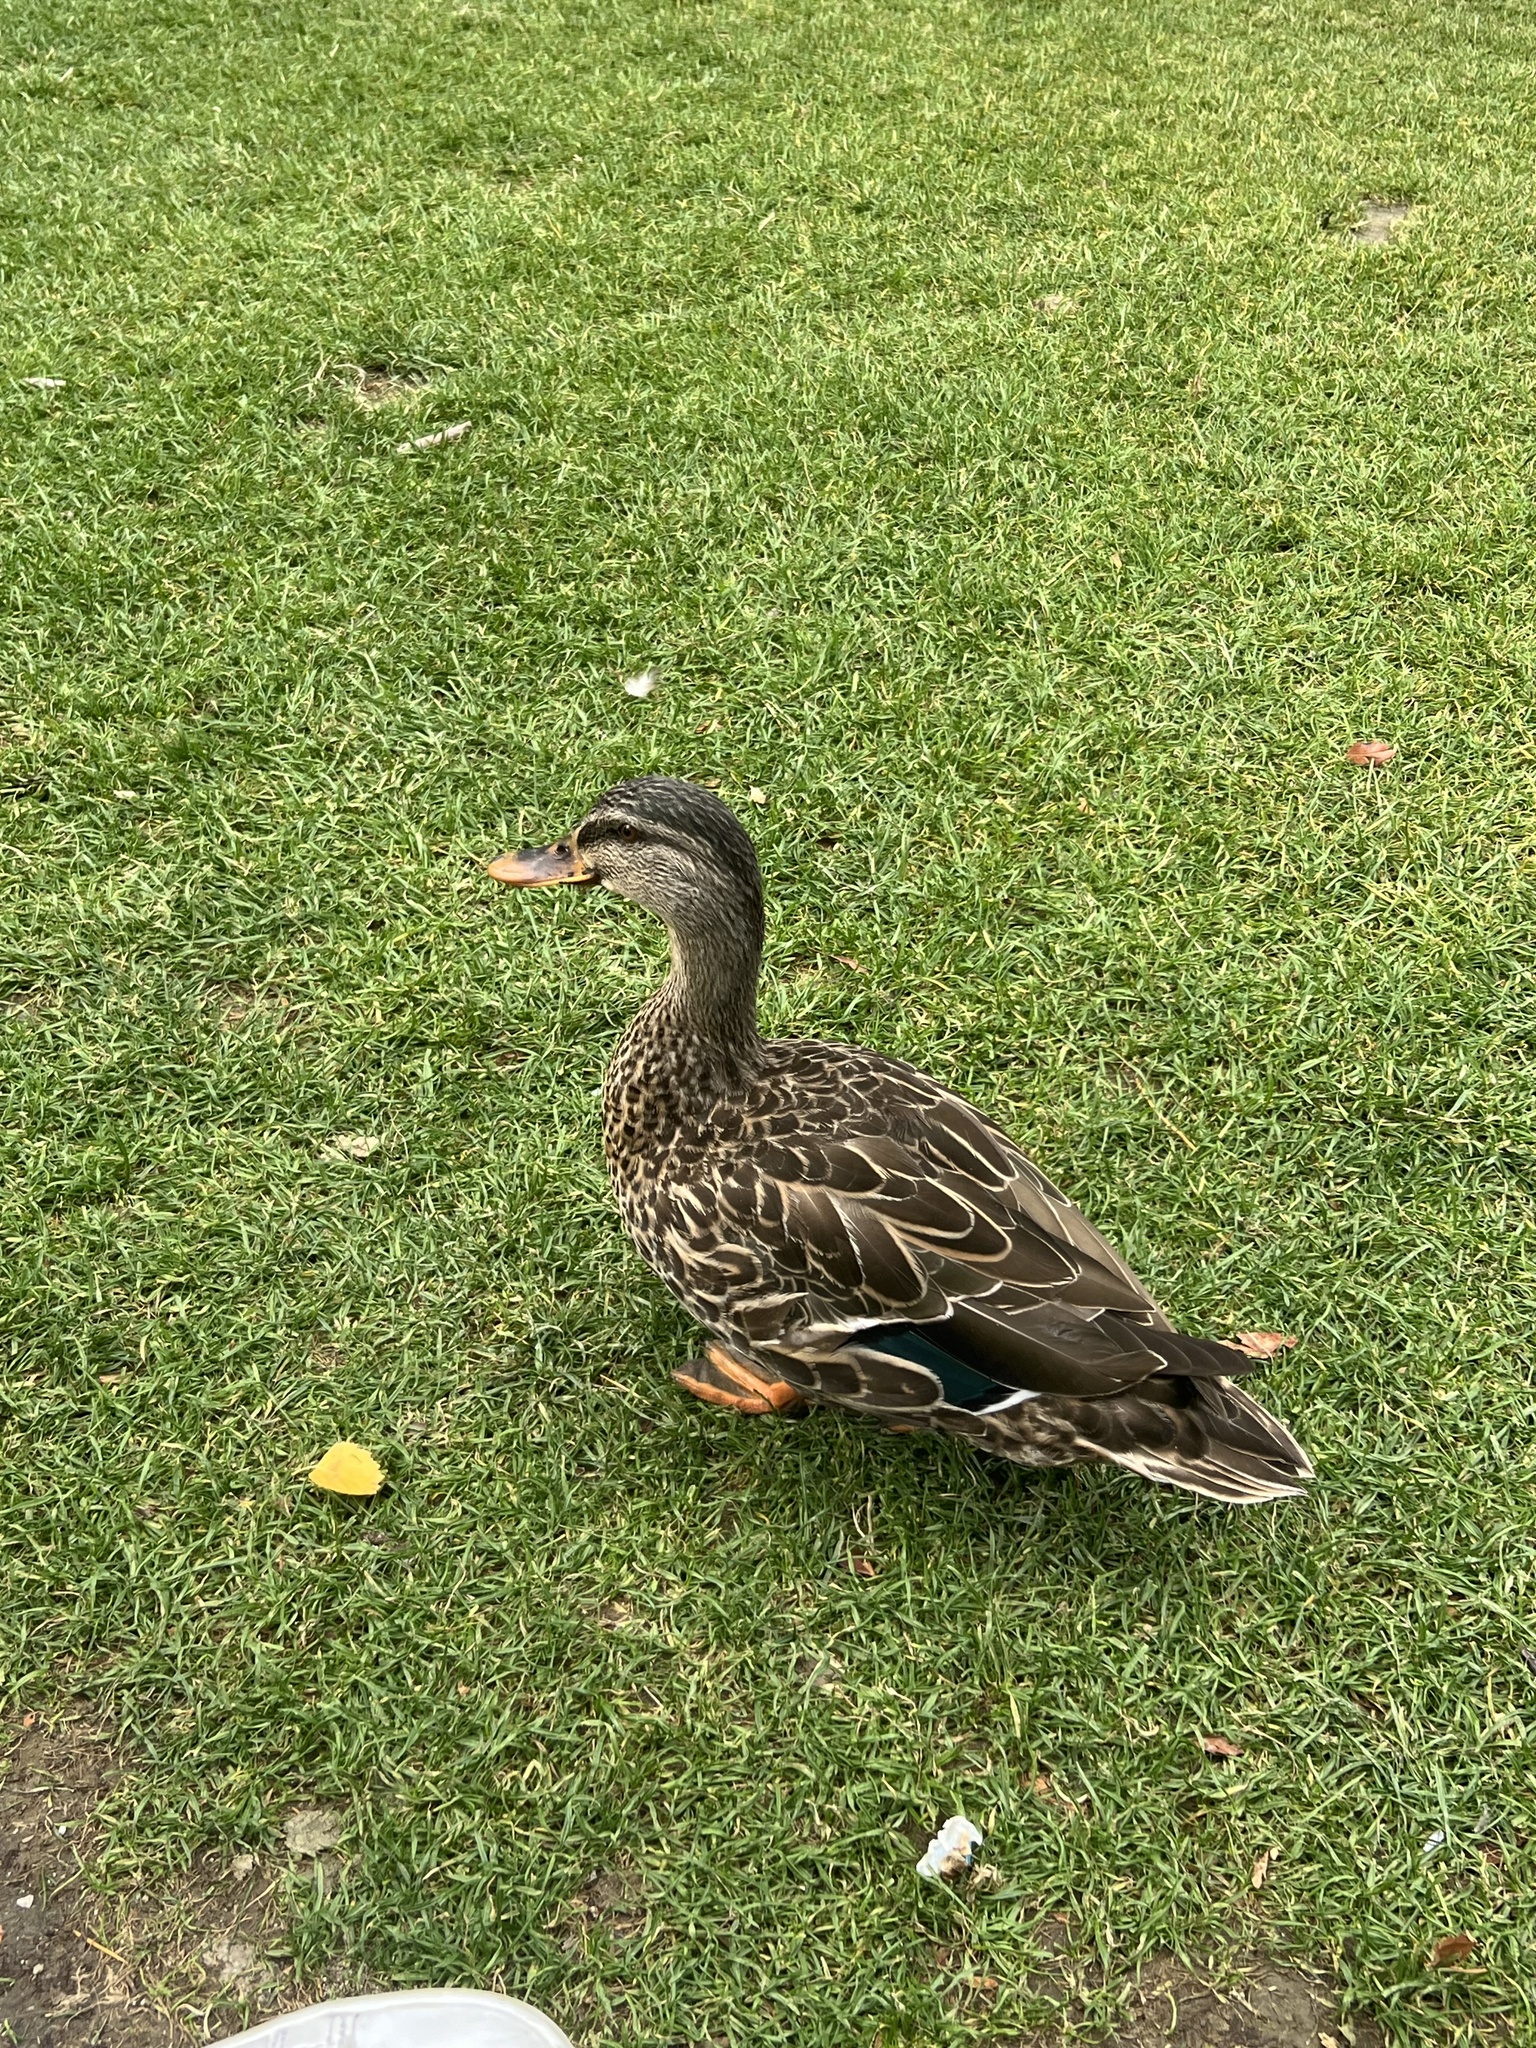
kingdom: Animalia
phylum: Chordata
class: Aves
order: Anseriformes
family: Anatidae
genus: Anas
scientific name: Anas
